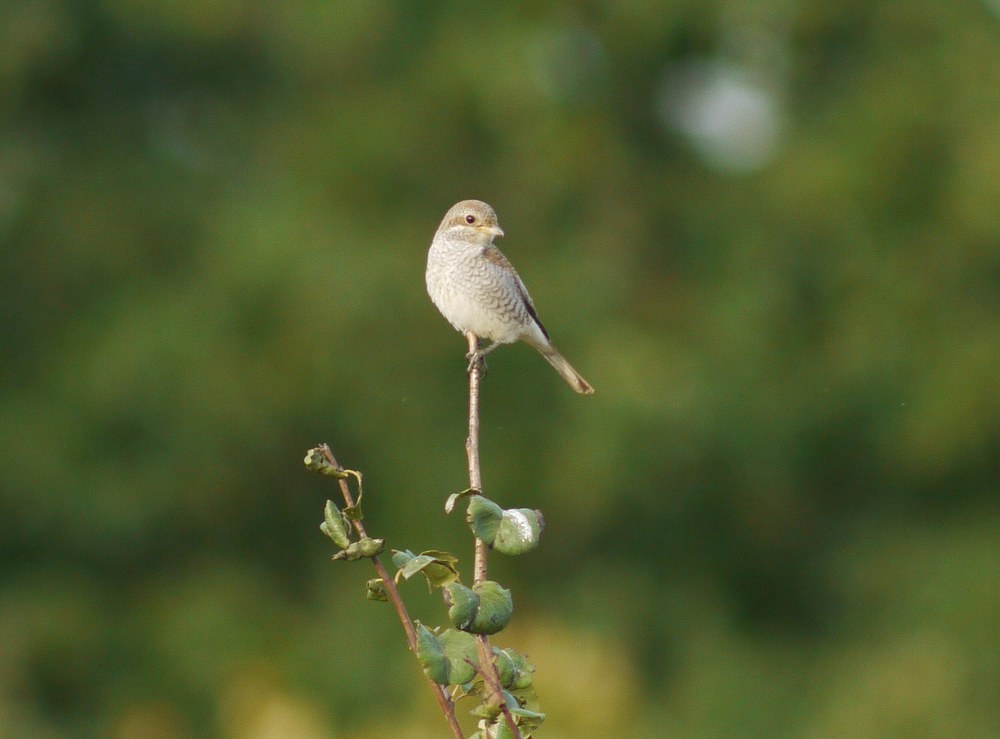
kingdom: Animalia
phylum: Chordata
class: Aves
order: Passeriformes
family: Laniidae
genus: Lanius
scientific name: Lanius collurio
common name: Red-backed shrike
